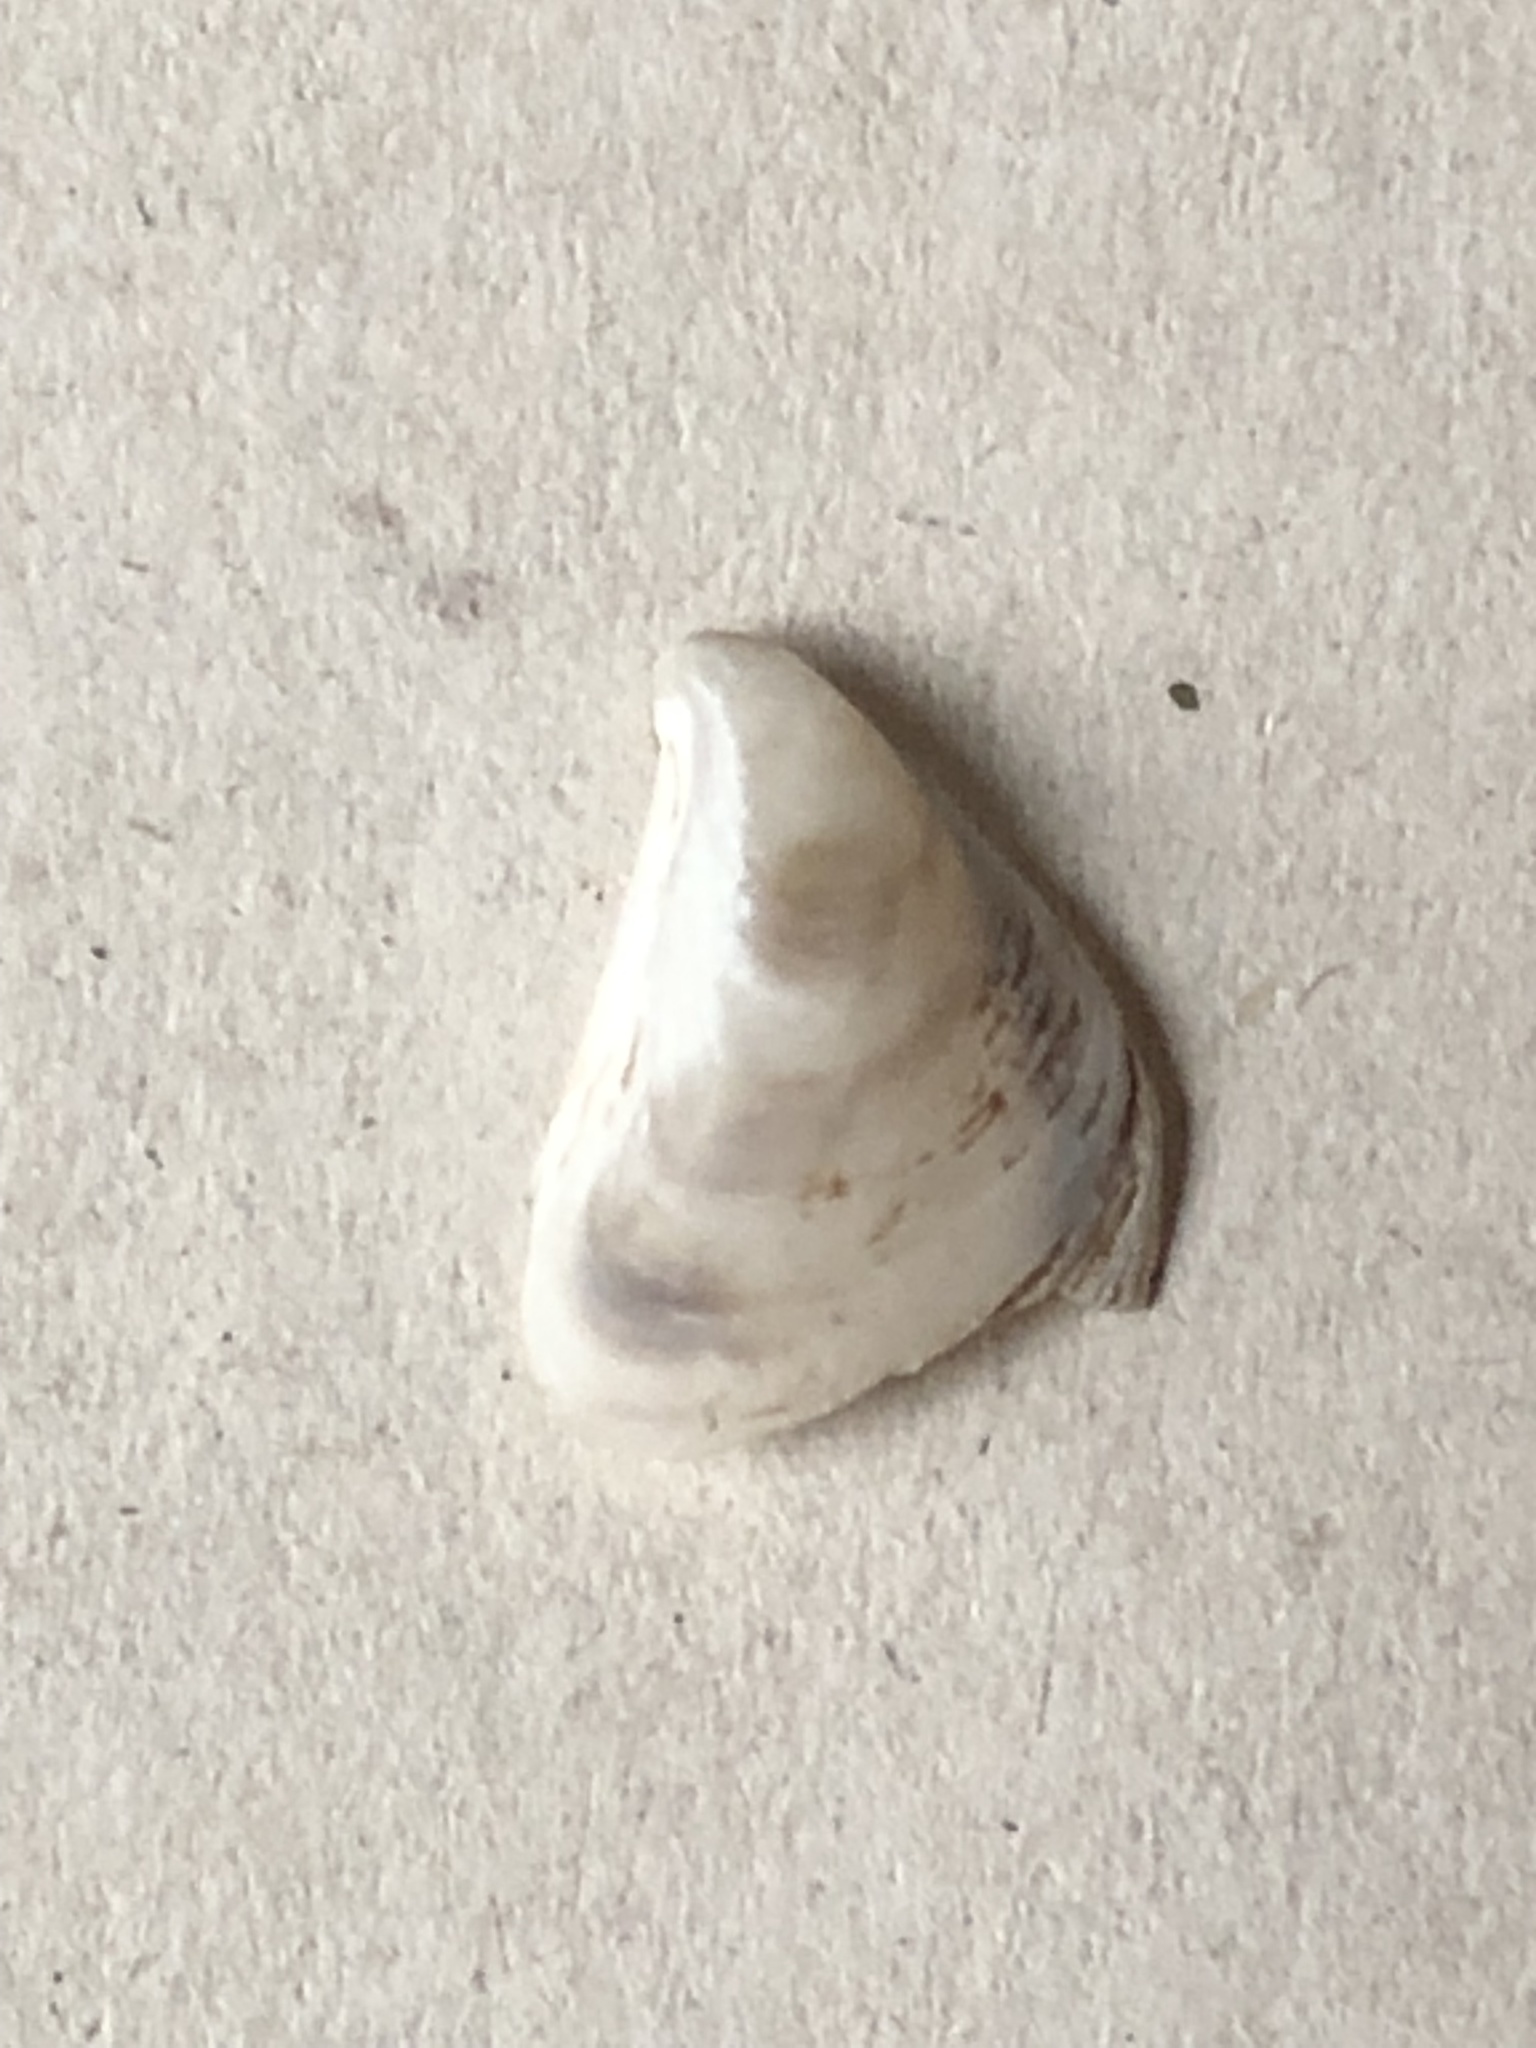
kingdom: Animalia
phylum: Mollusca
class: Bivalvia
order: Myida
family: Dreissenidae
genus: Dreissena
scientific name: Dreissena bugensis
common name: Quagga mussel
